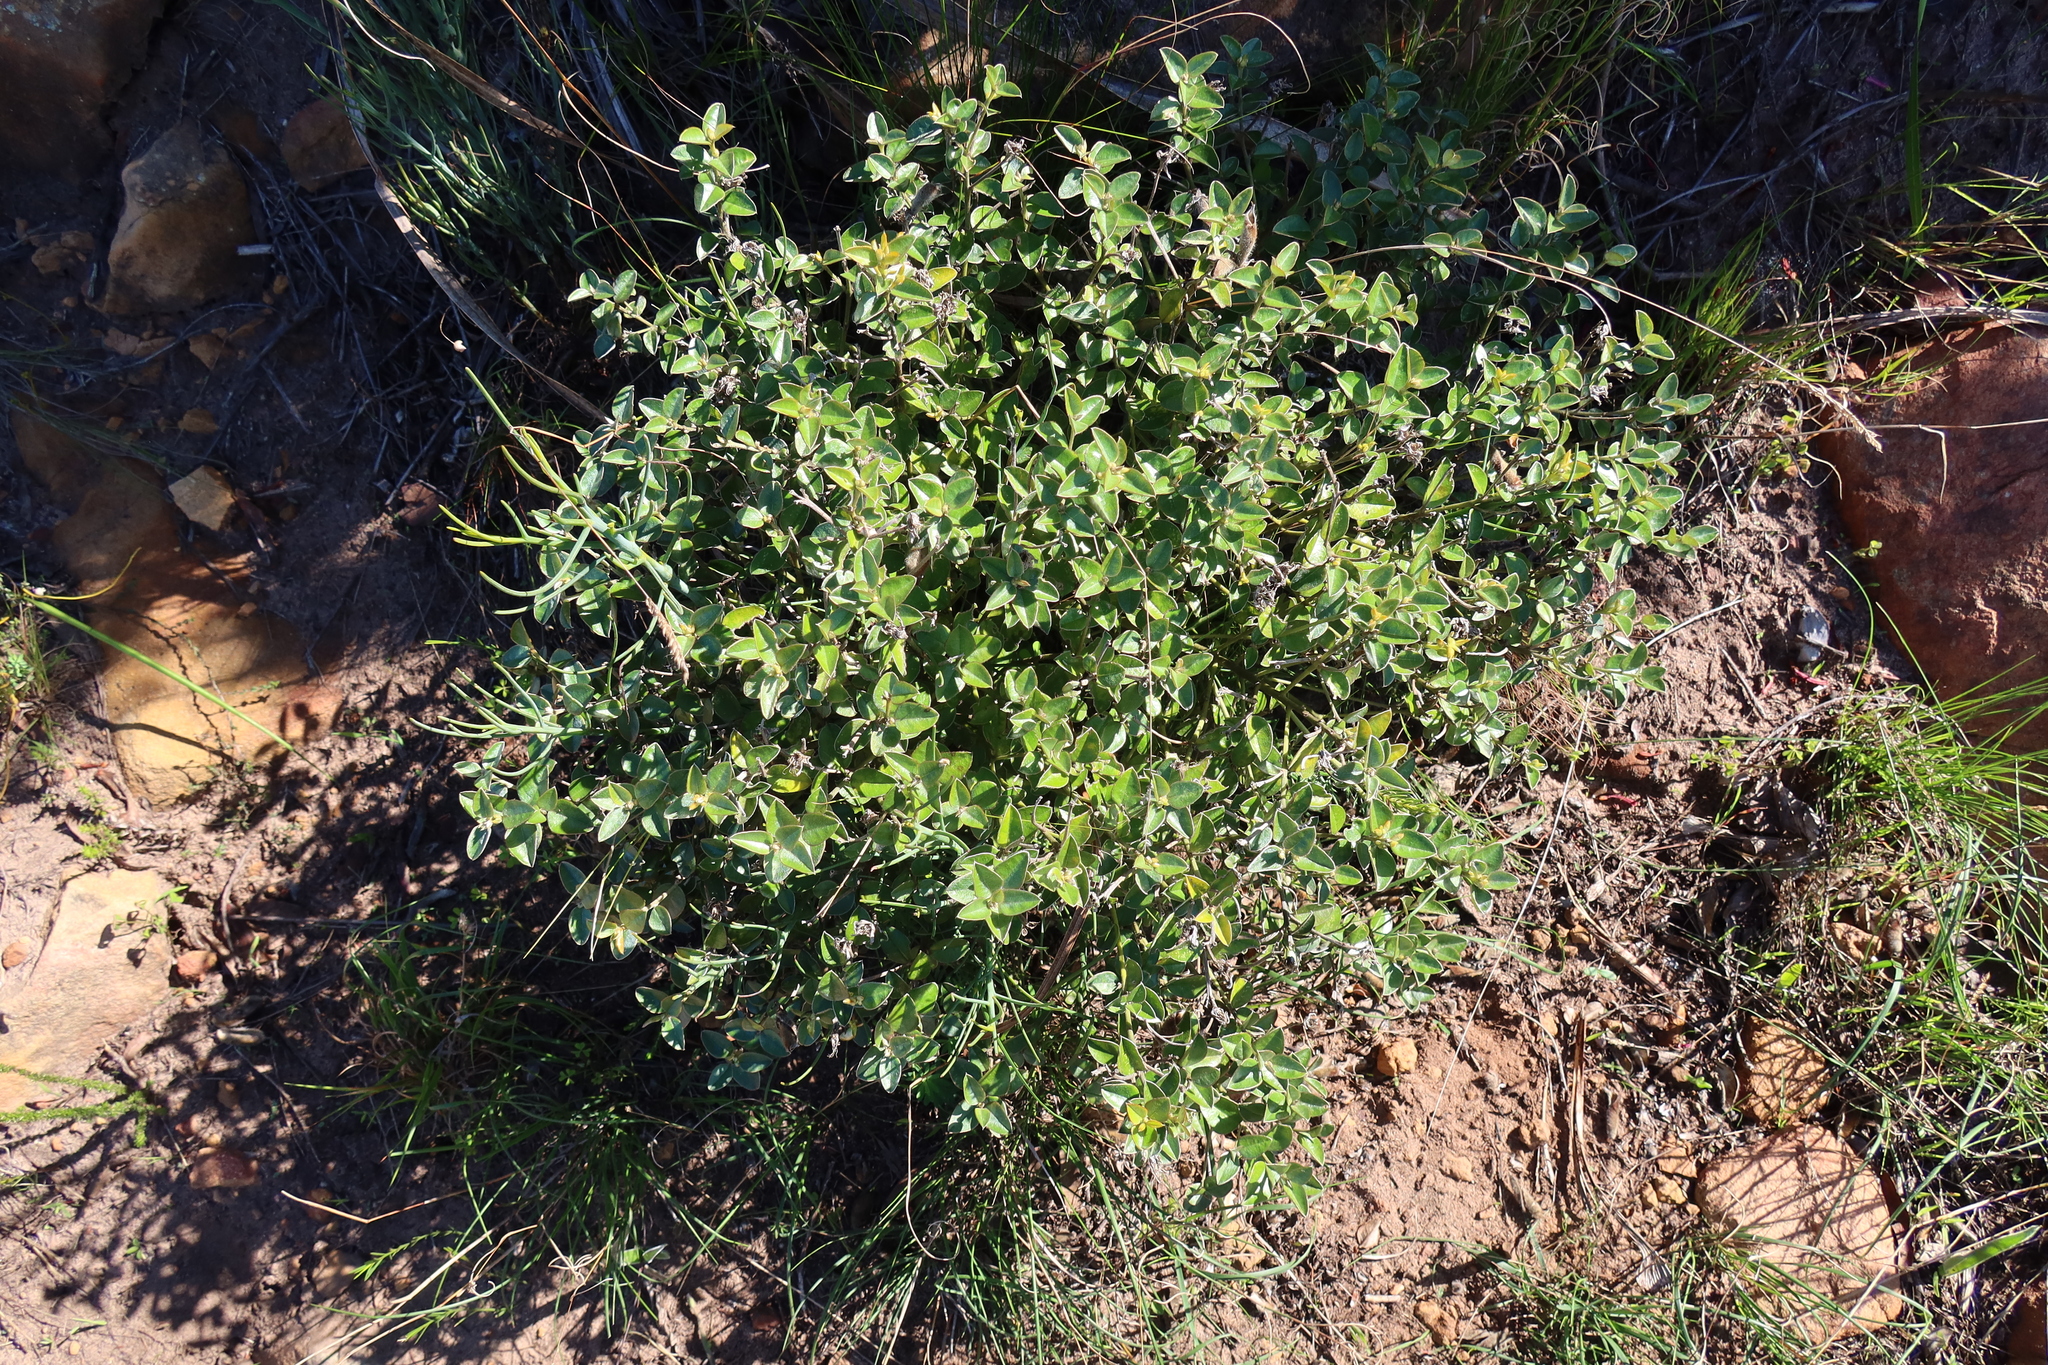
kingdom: Plantae
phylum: Tracheophyta
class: Magnoliopsida
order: Fabales
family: Fabaceae
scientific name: Fabaceae
